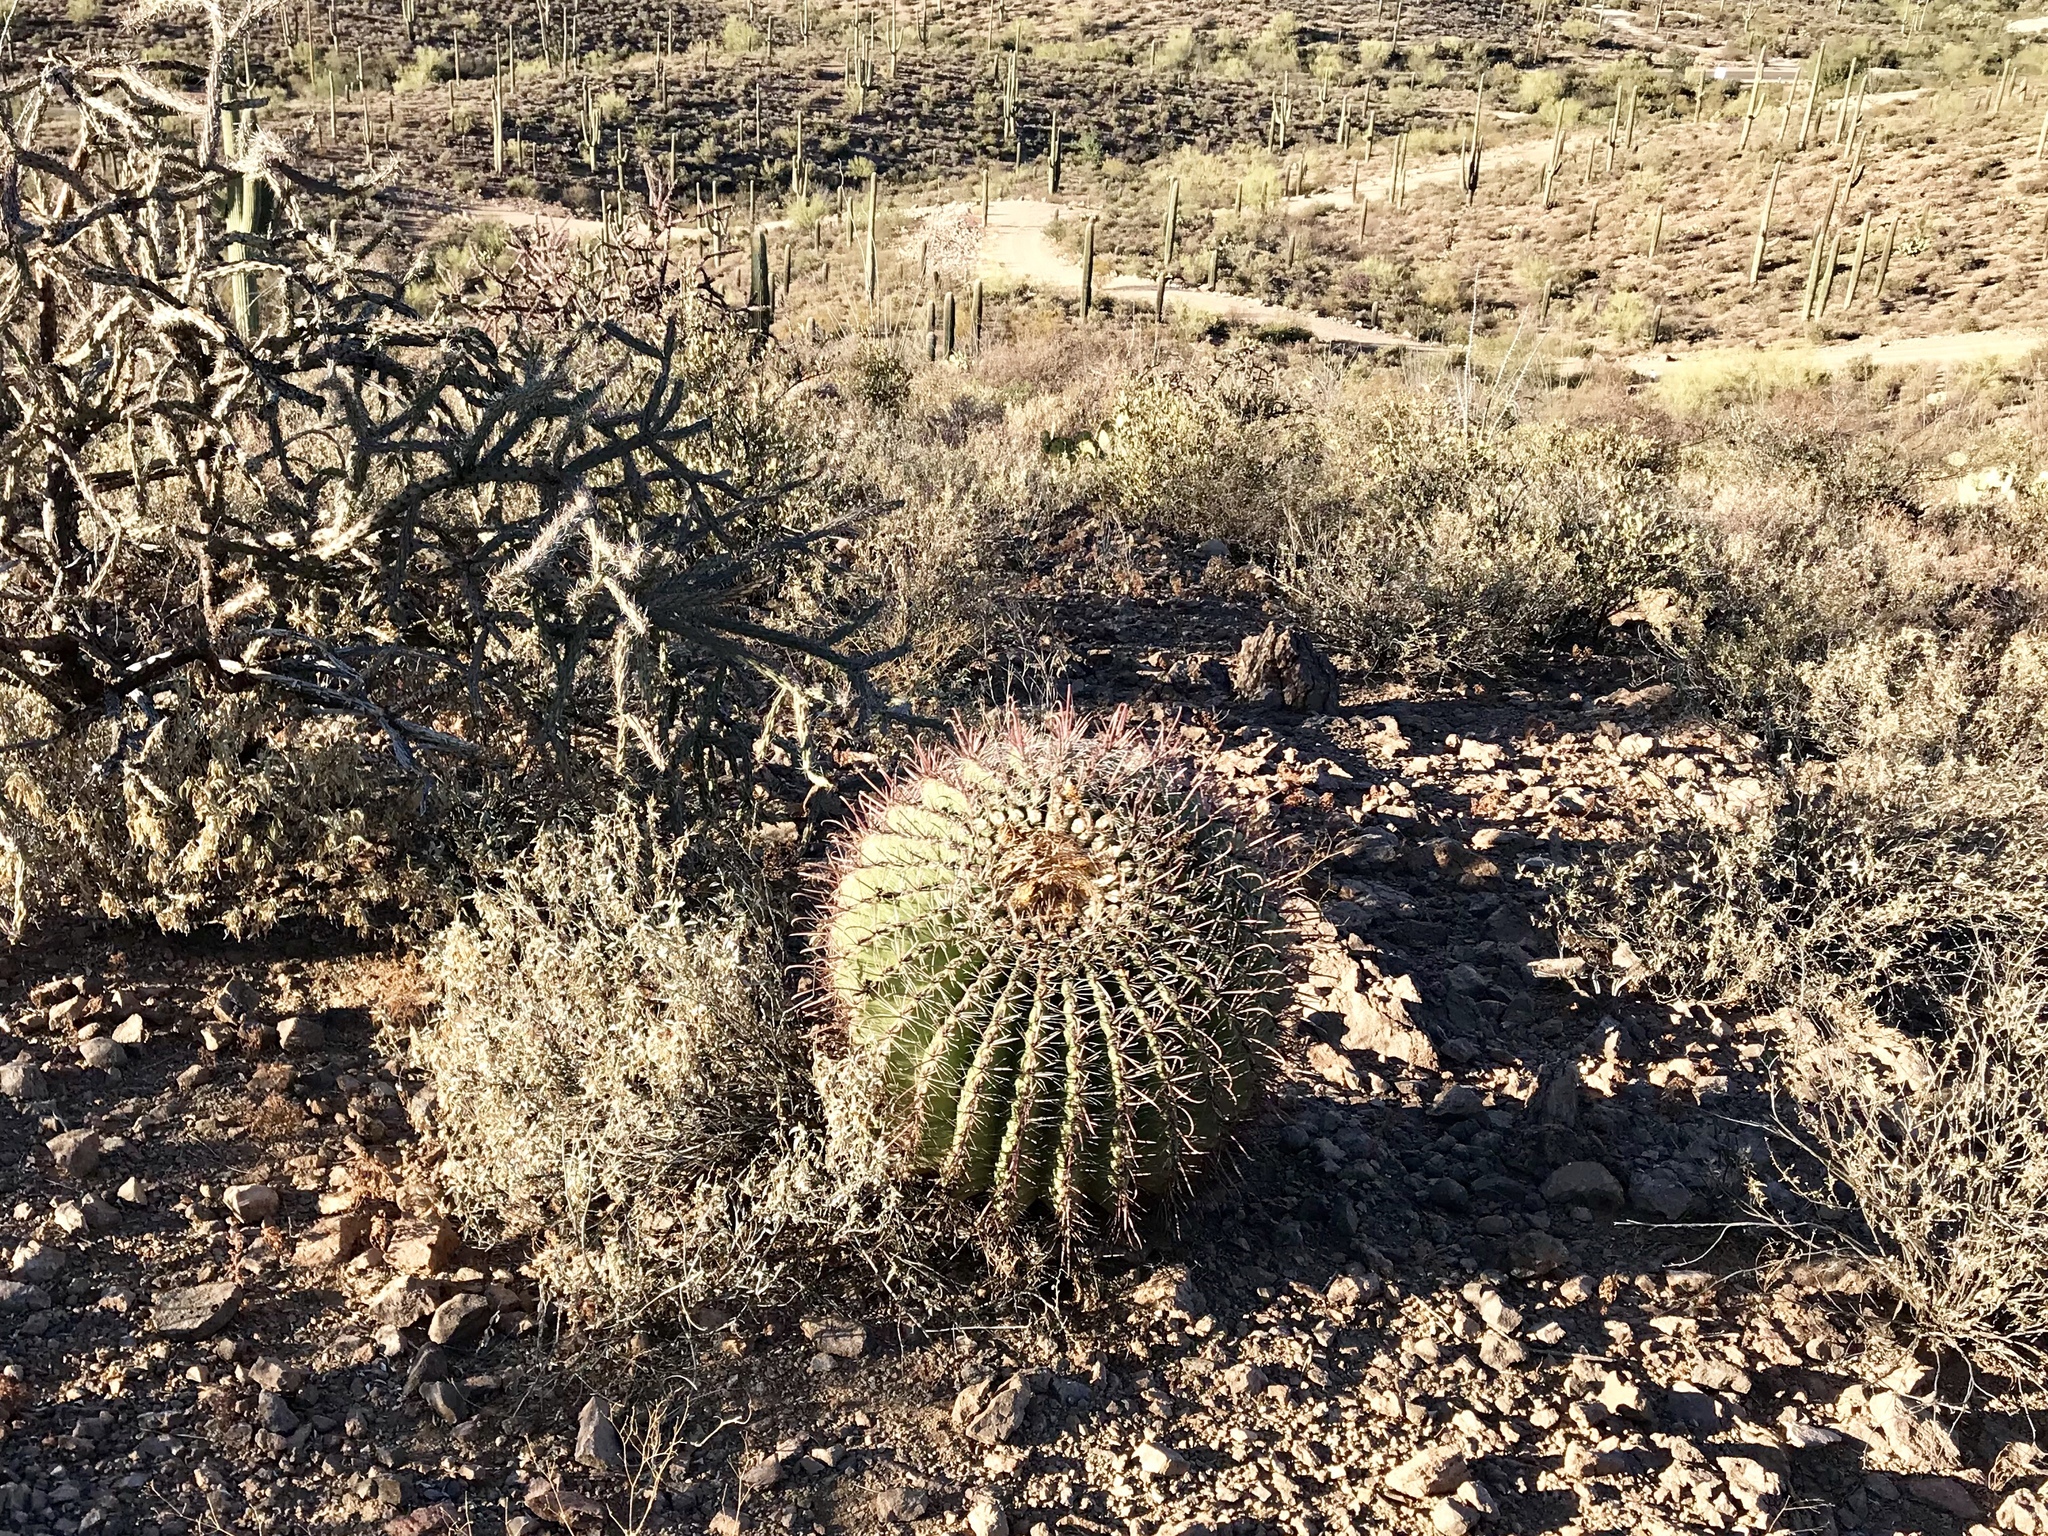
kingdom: Plantae
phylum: Tracheophyta
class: Magnoliopsida
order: Caryophyllales
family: Cactaceae
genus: Ferocactus
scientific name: Ferocactus wislizeni
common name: Candy barrel cactus
